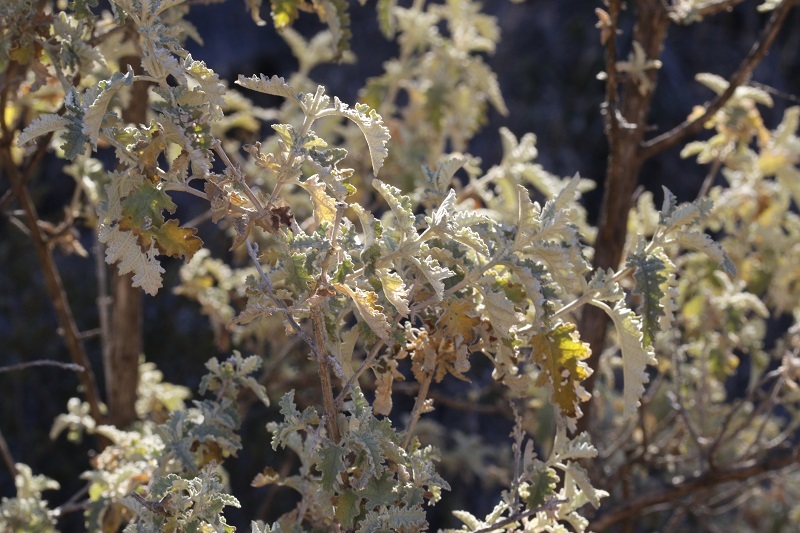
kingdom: Plantae
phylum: Tracheophyta
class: Magnoliopsida
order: Lamiales
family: Scrophulariaceae
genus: Buddleja
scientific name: Buddleja glomerata
